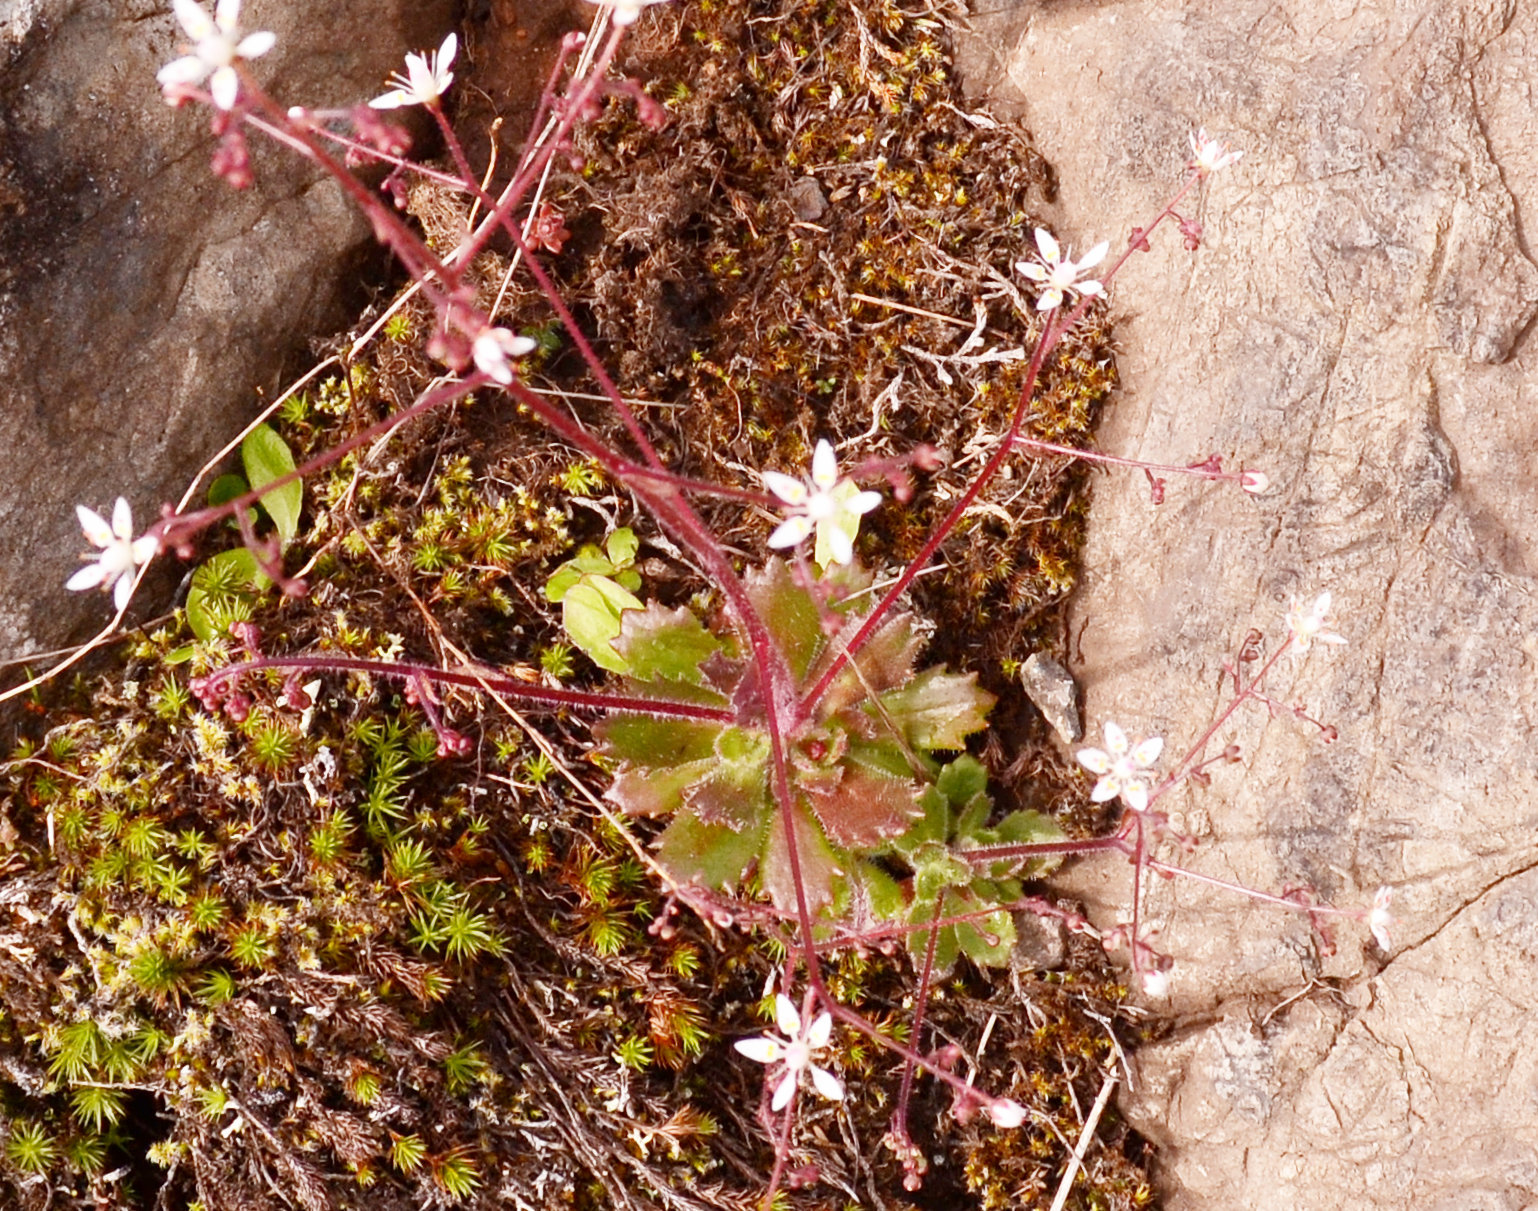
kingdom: Plantae
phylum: Tracheophyta
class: Magnoliopsida
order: Saxifragales
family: Saxifragaceae
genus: Micranthes
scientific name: Micranthes ferruginea
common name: Rusty saxifrage
